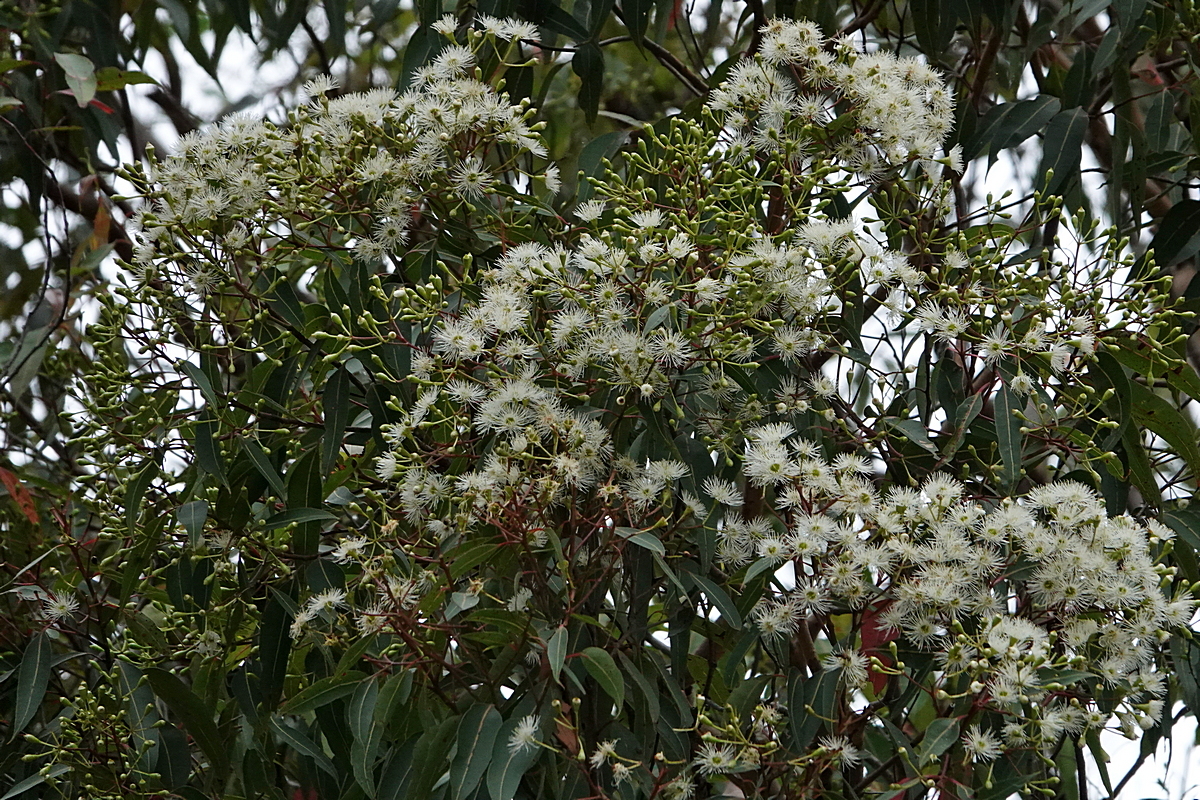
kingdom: Plantae
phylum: Tracheophyta
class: Magnoliopsida
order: Myrtales
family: Myrtaceae
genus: Corymbia
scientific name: Corymbia gummifera
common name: Red bloodwood
